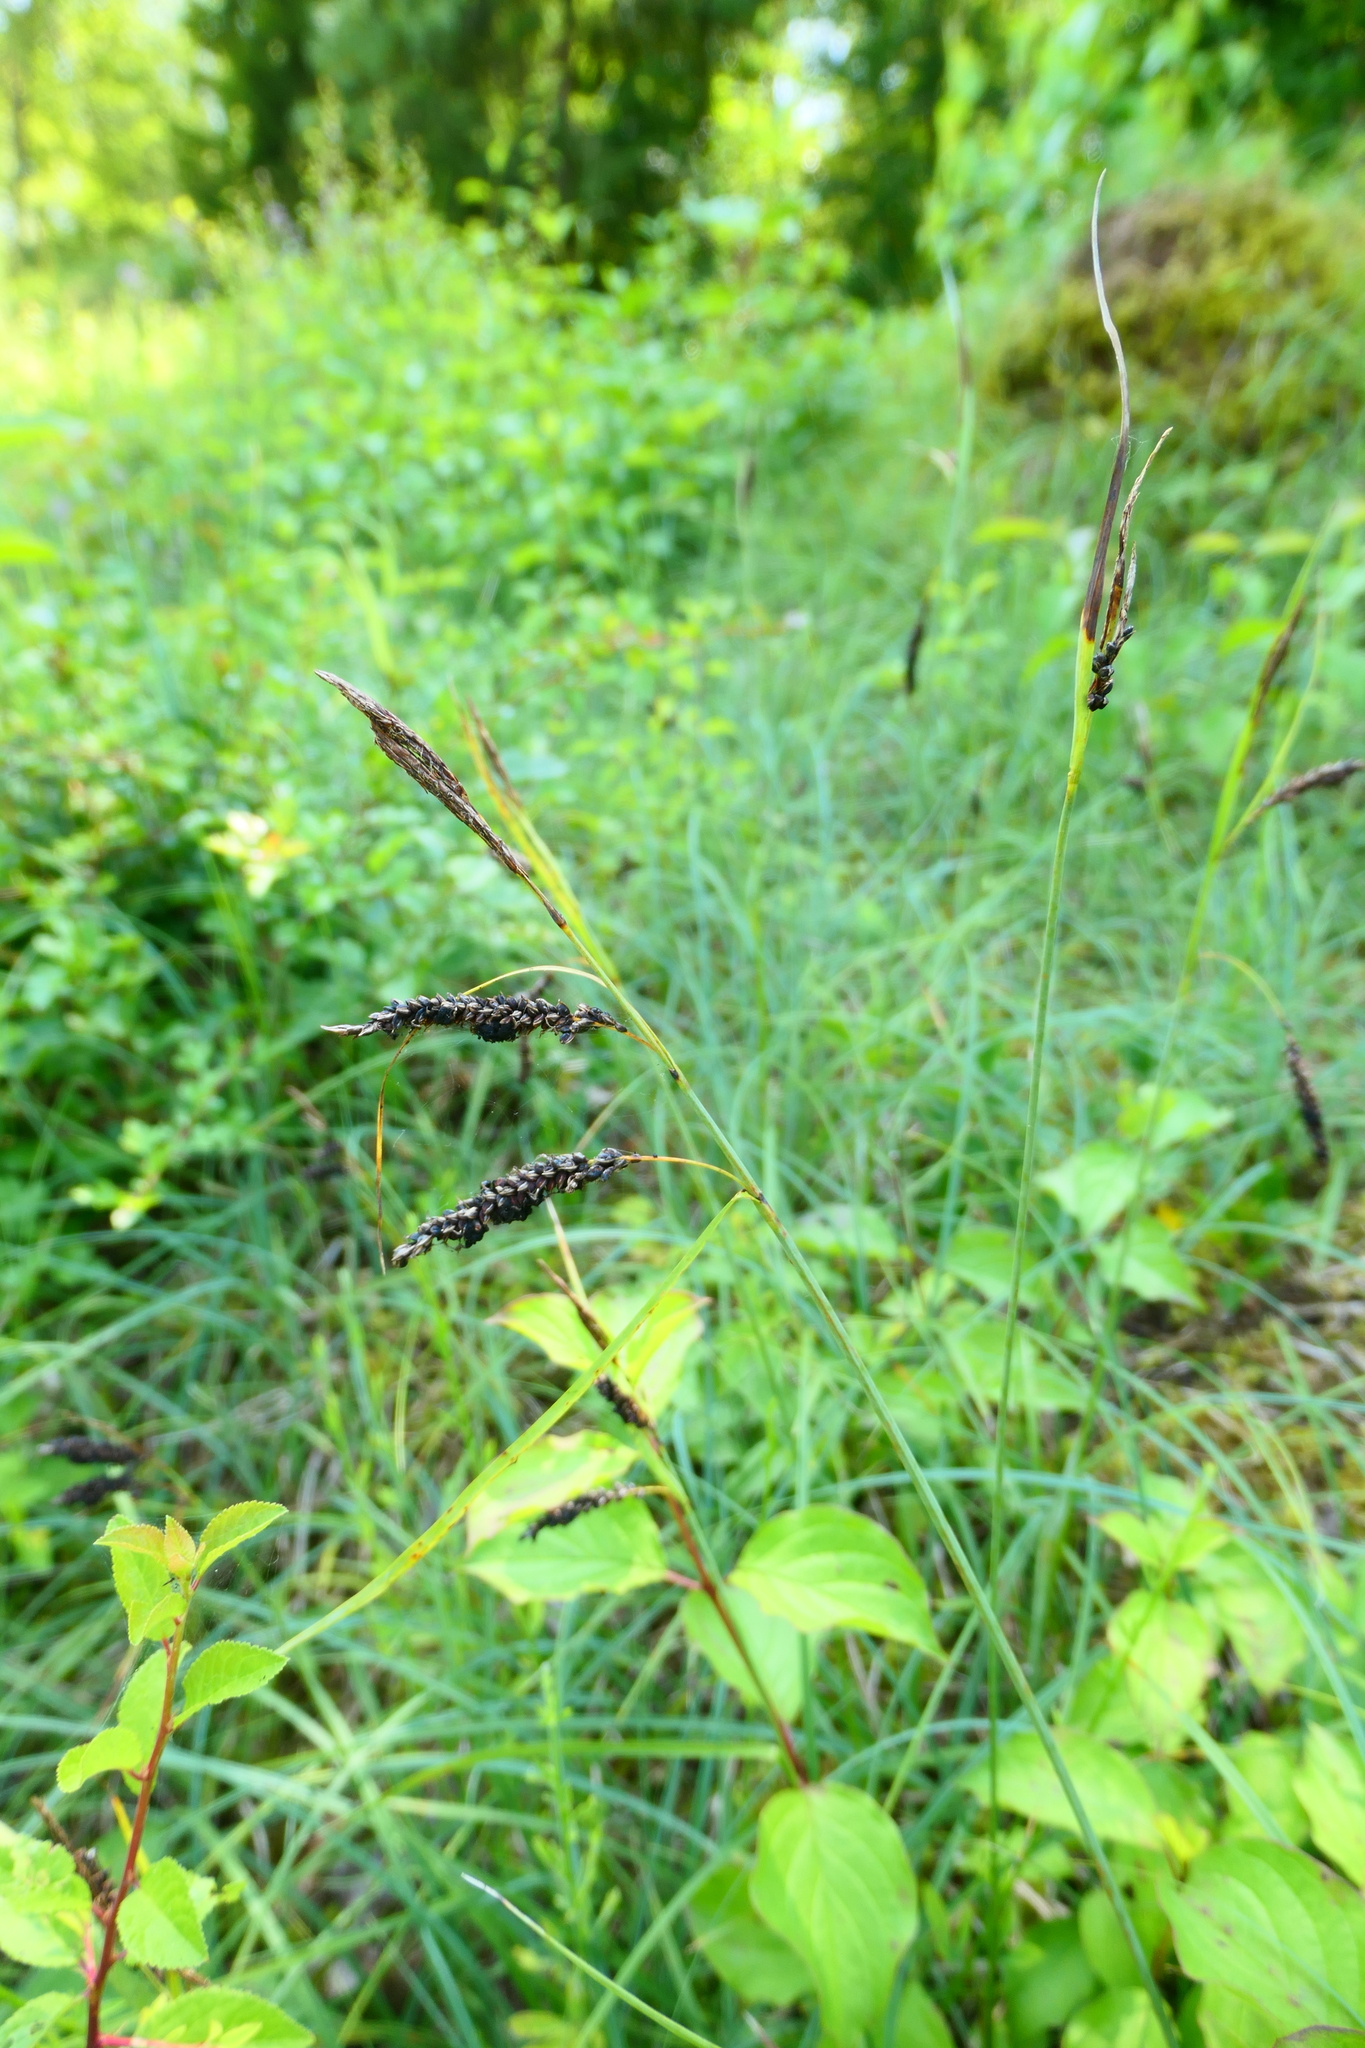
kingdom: Plantae
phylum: Tracheophyta
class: Liliopsida
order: Poales
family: Cyperaceae
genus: Carex
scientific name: Carex flacca
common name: Glaucous sedge
